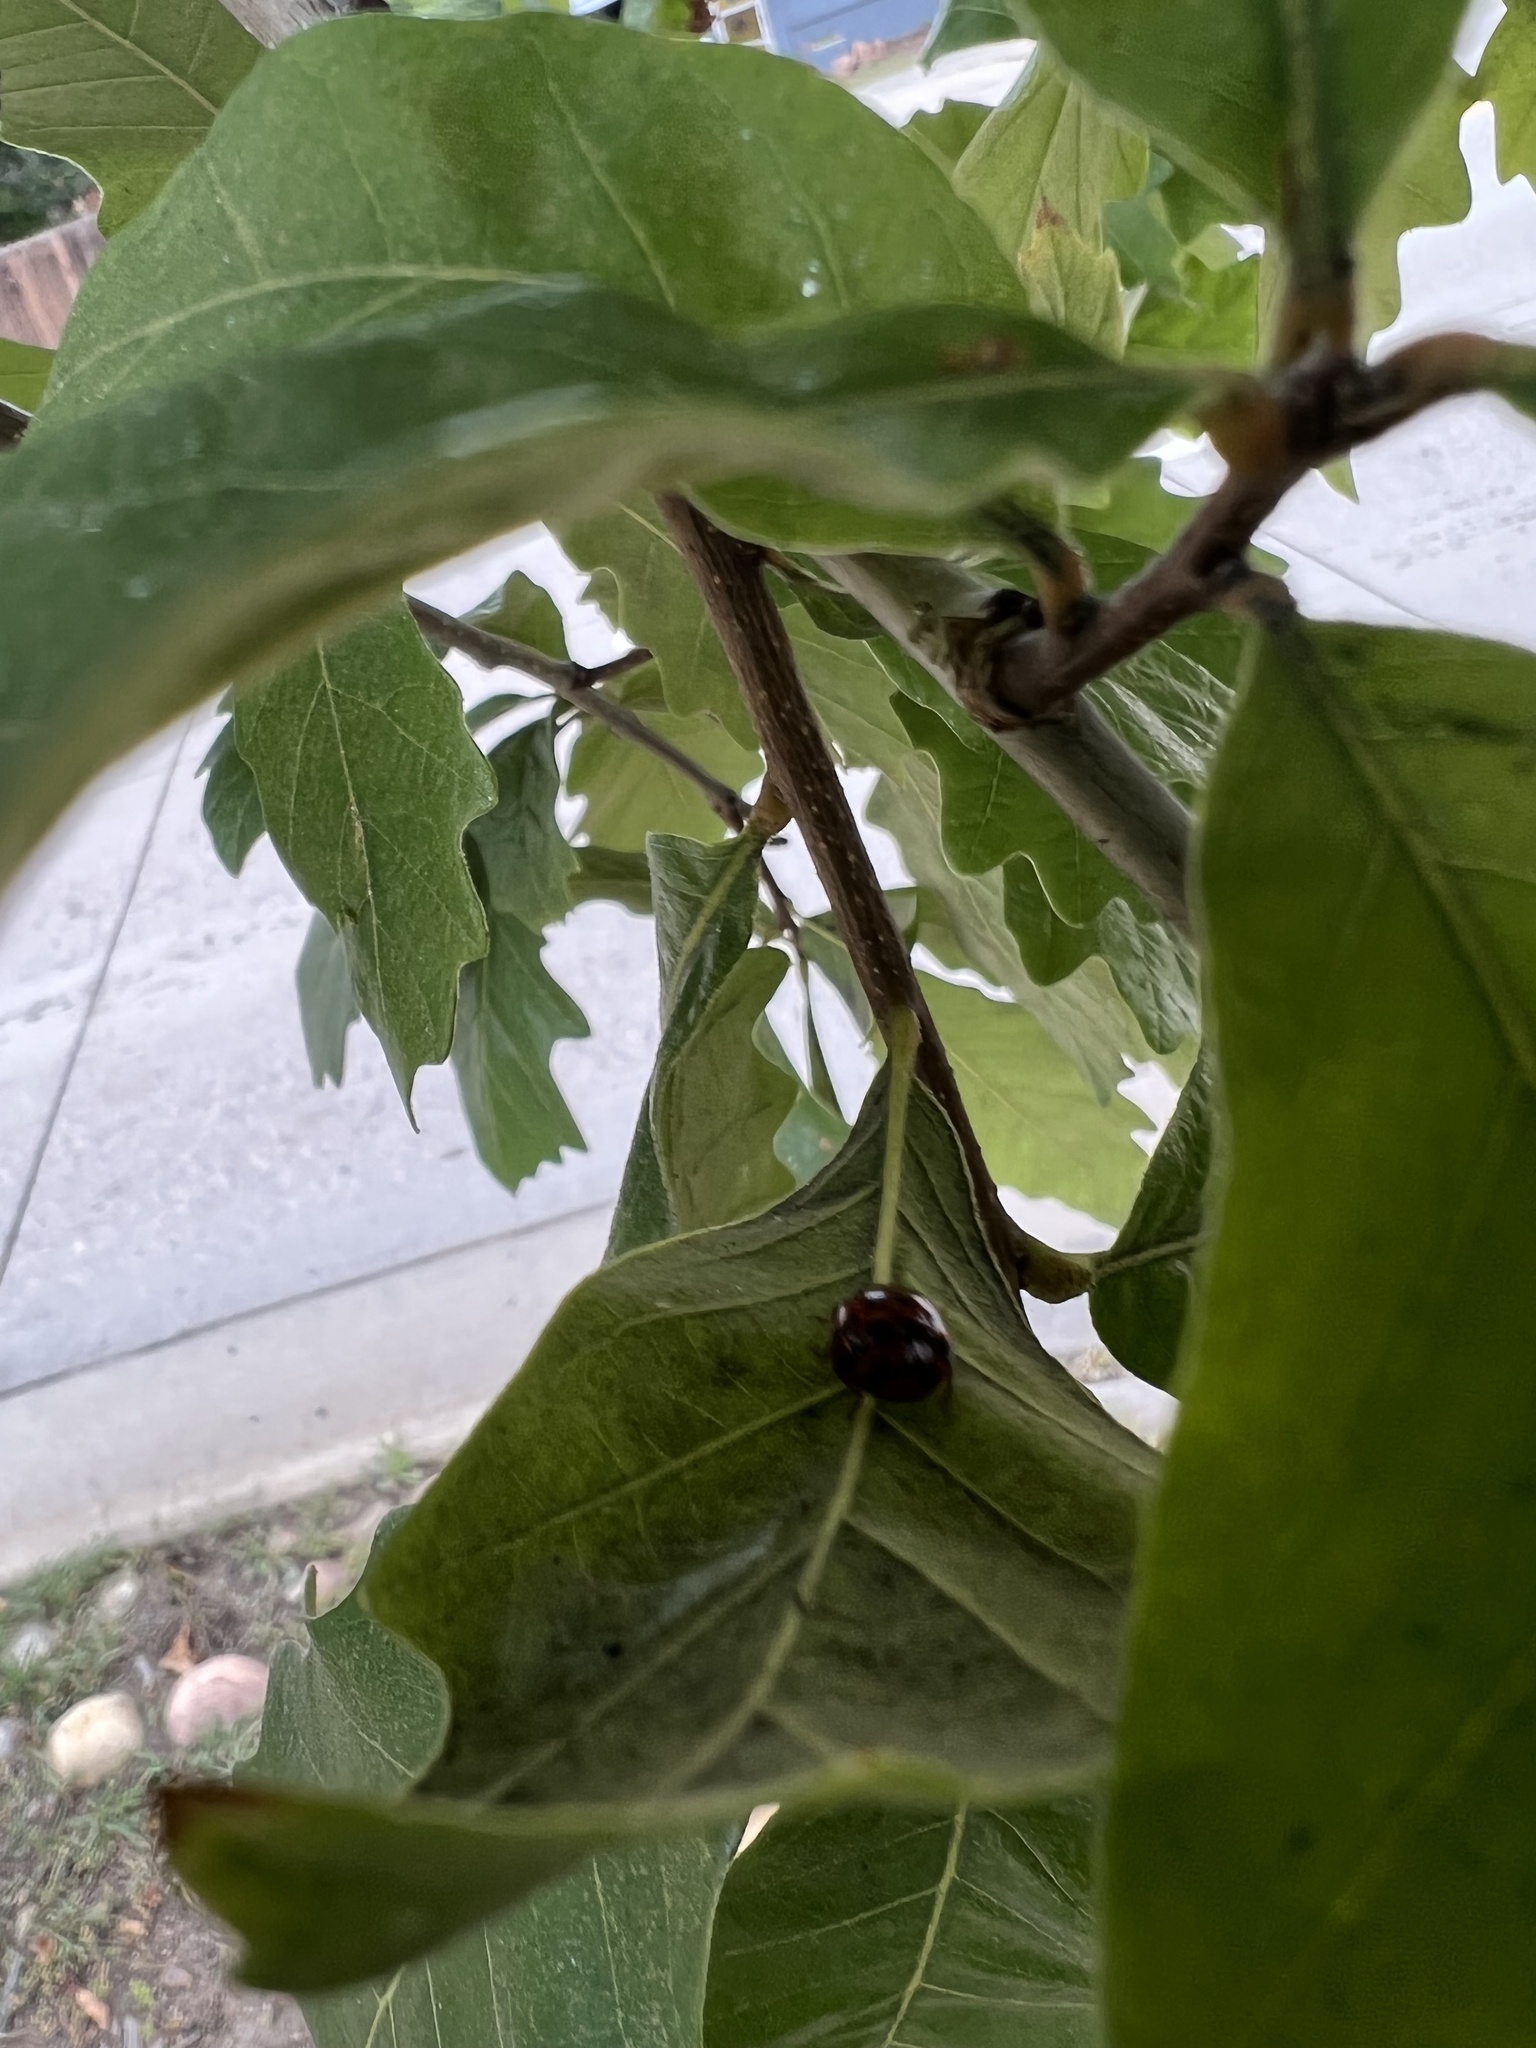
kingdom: Animalia
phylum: Arthropoda
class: Insecta
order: Coleoptera
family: Coccinellidae
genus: Harmonia
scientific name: Harmonia axyridis
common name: Harlequin ladybird
